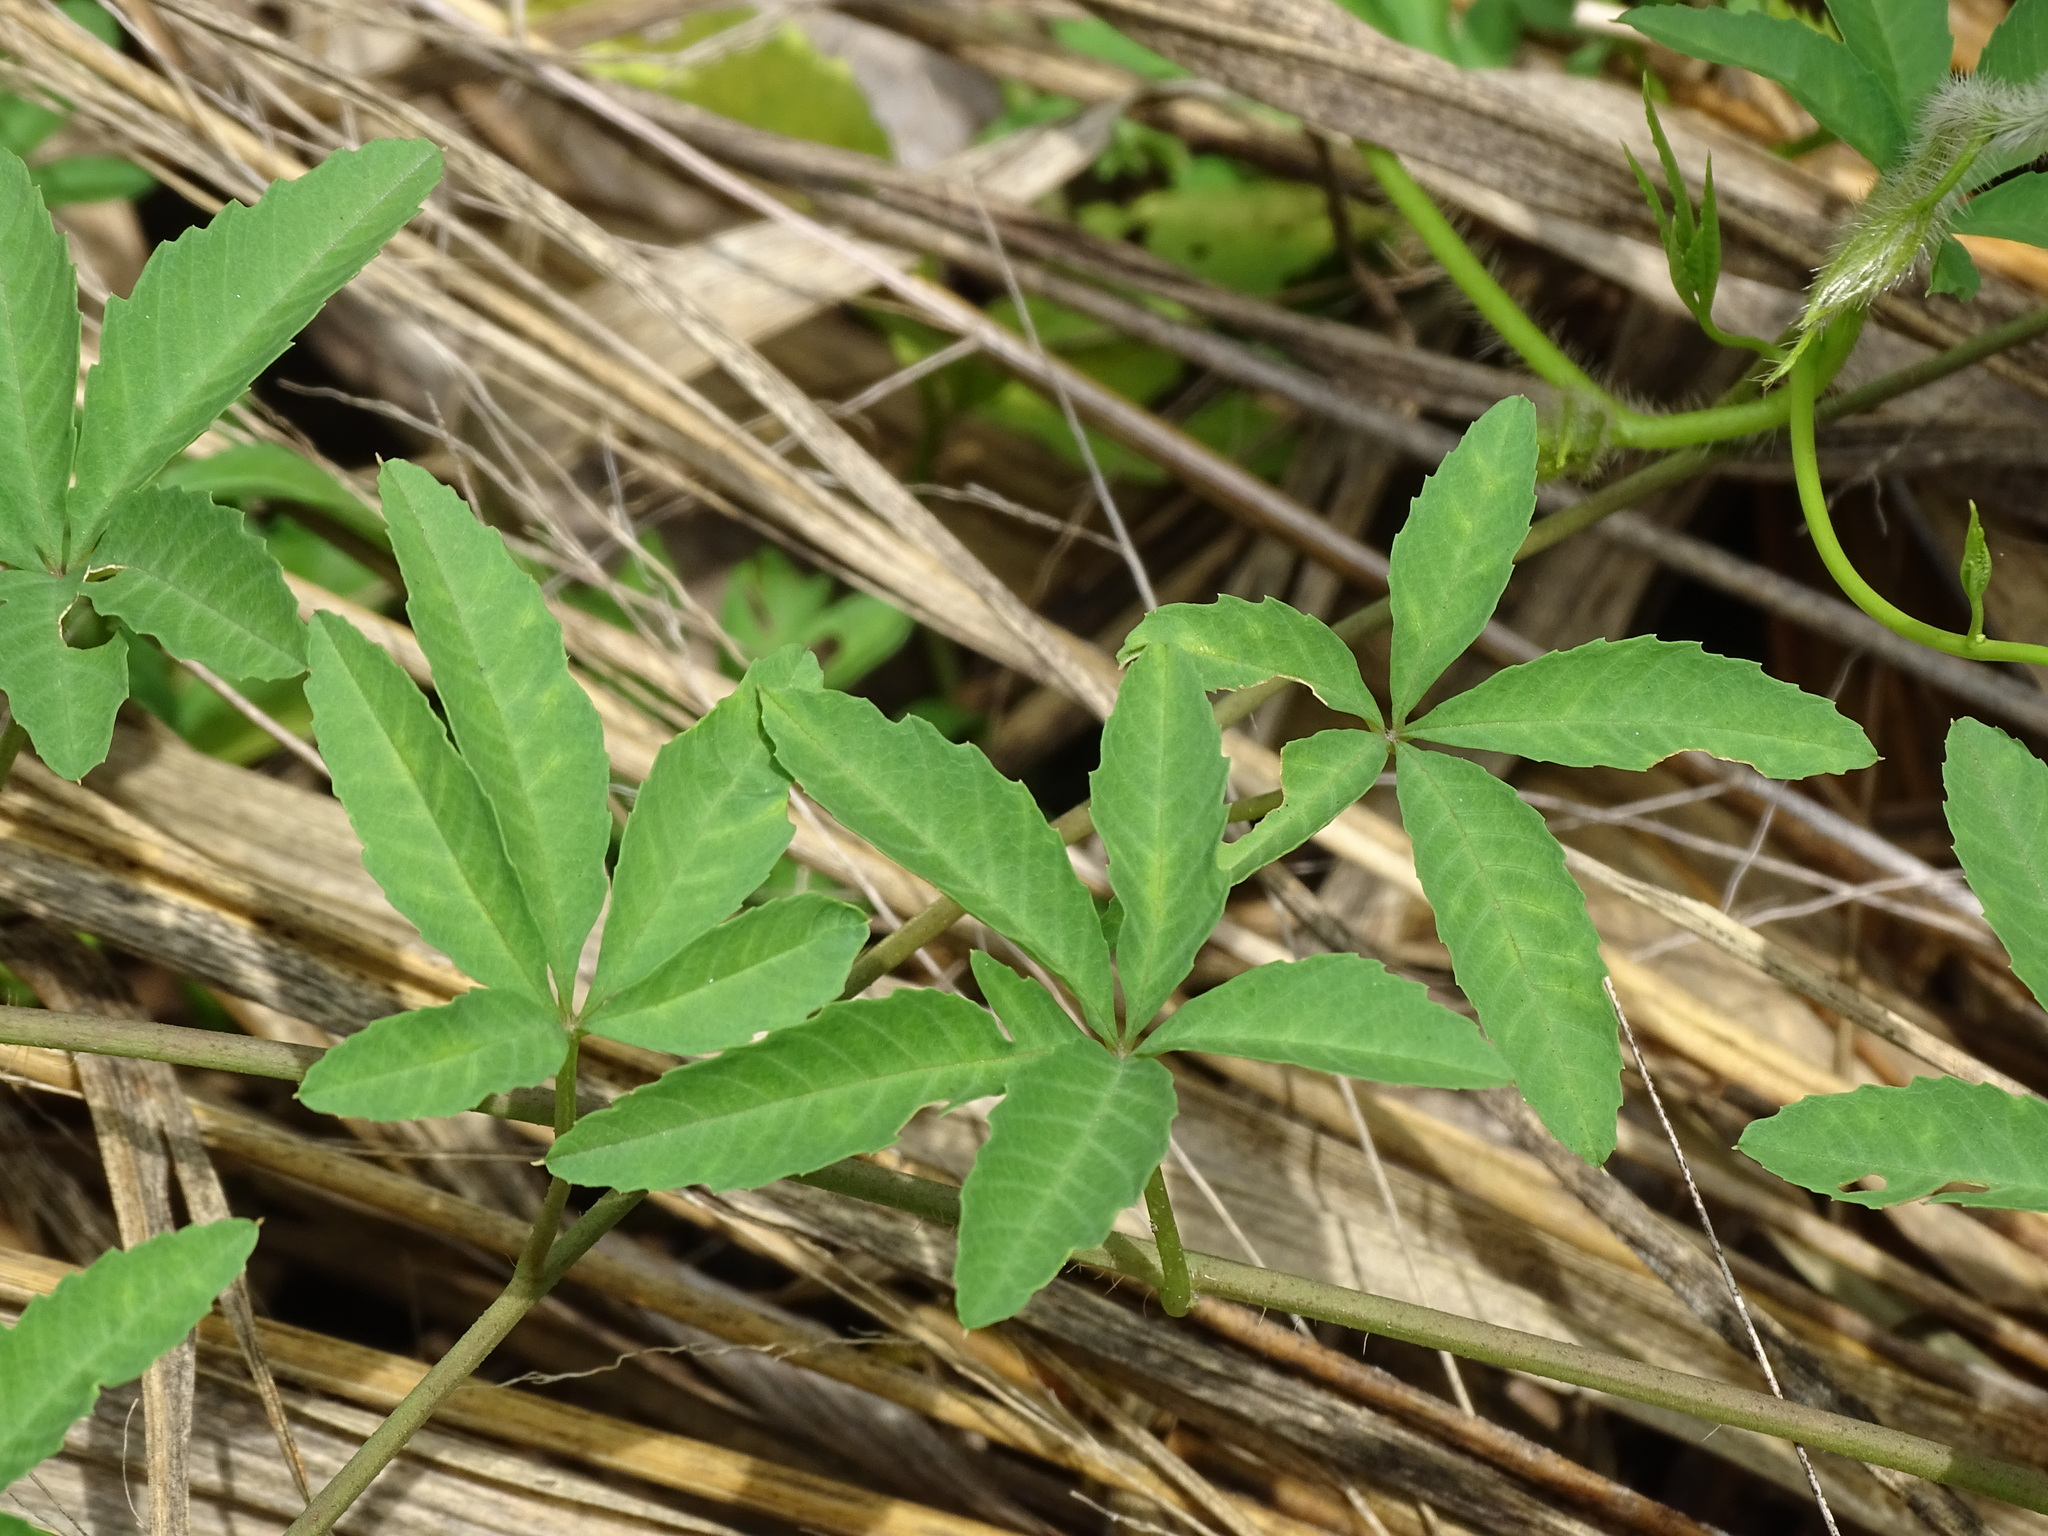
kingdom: Plantae
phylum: Tracheophyta
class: Magnoliopsida
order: Solanales
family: Convolvulaceae
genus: Distimake
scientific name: Distimake quinquefolius
